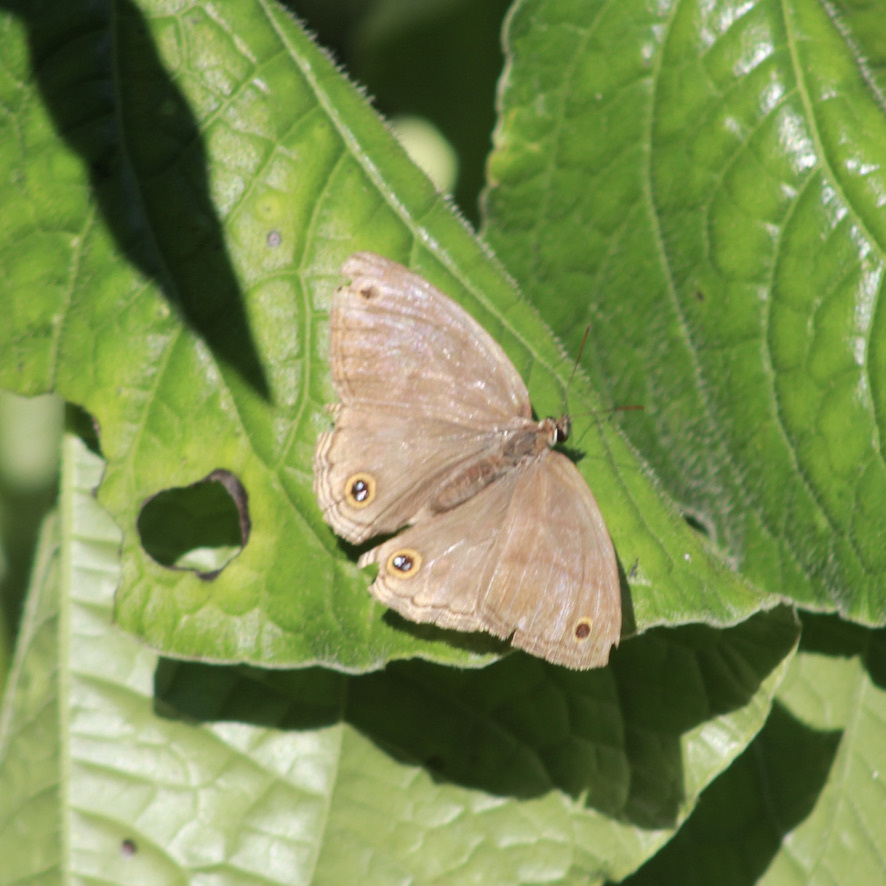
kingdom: Animalia
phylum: Arthropoda
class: Insecta
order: Lepidoptera
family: Nymphalidae
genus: Argyreuptychia
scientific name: Argyreuptychia penelope
